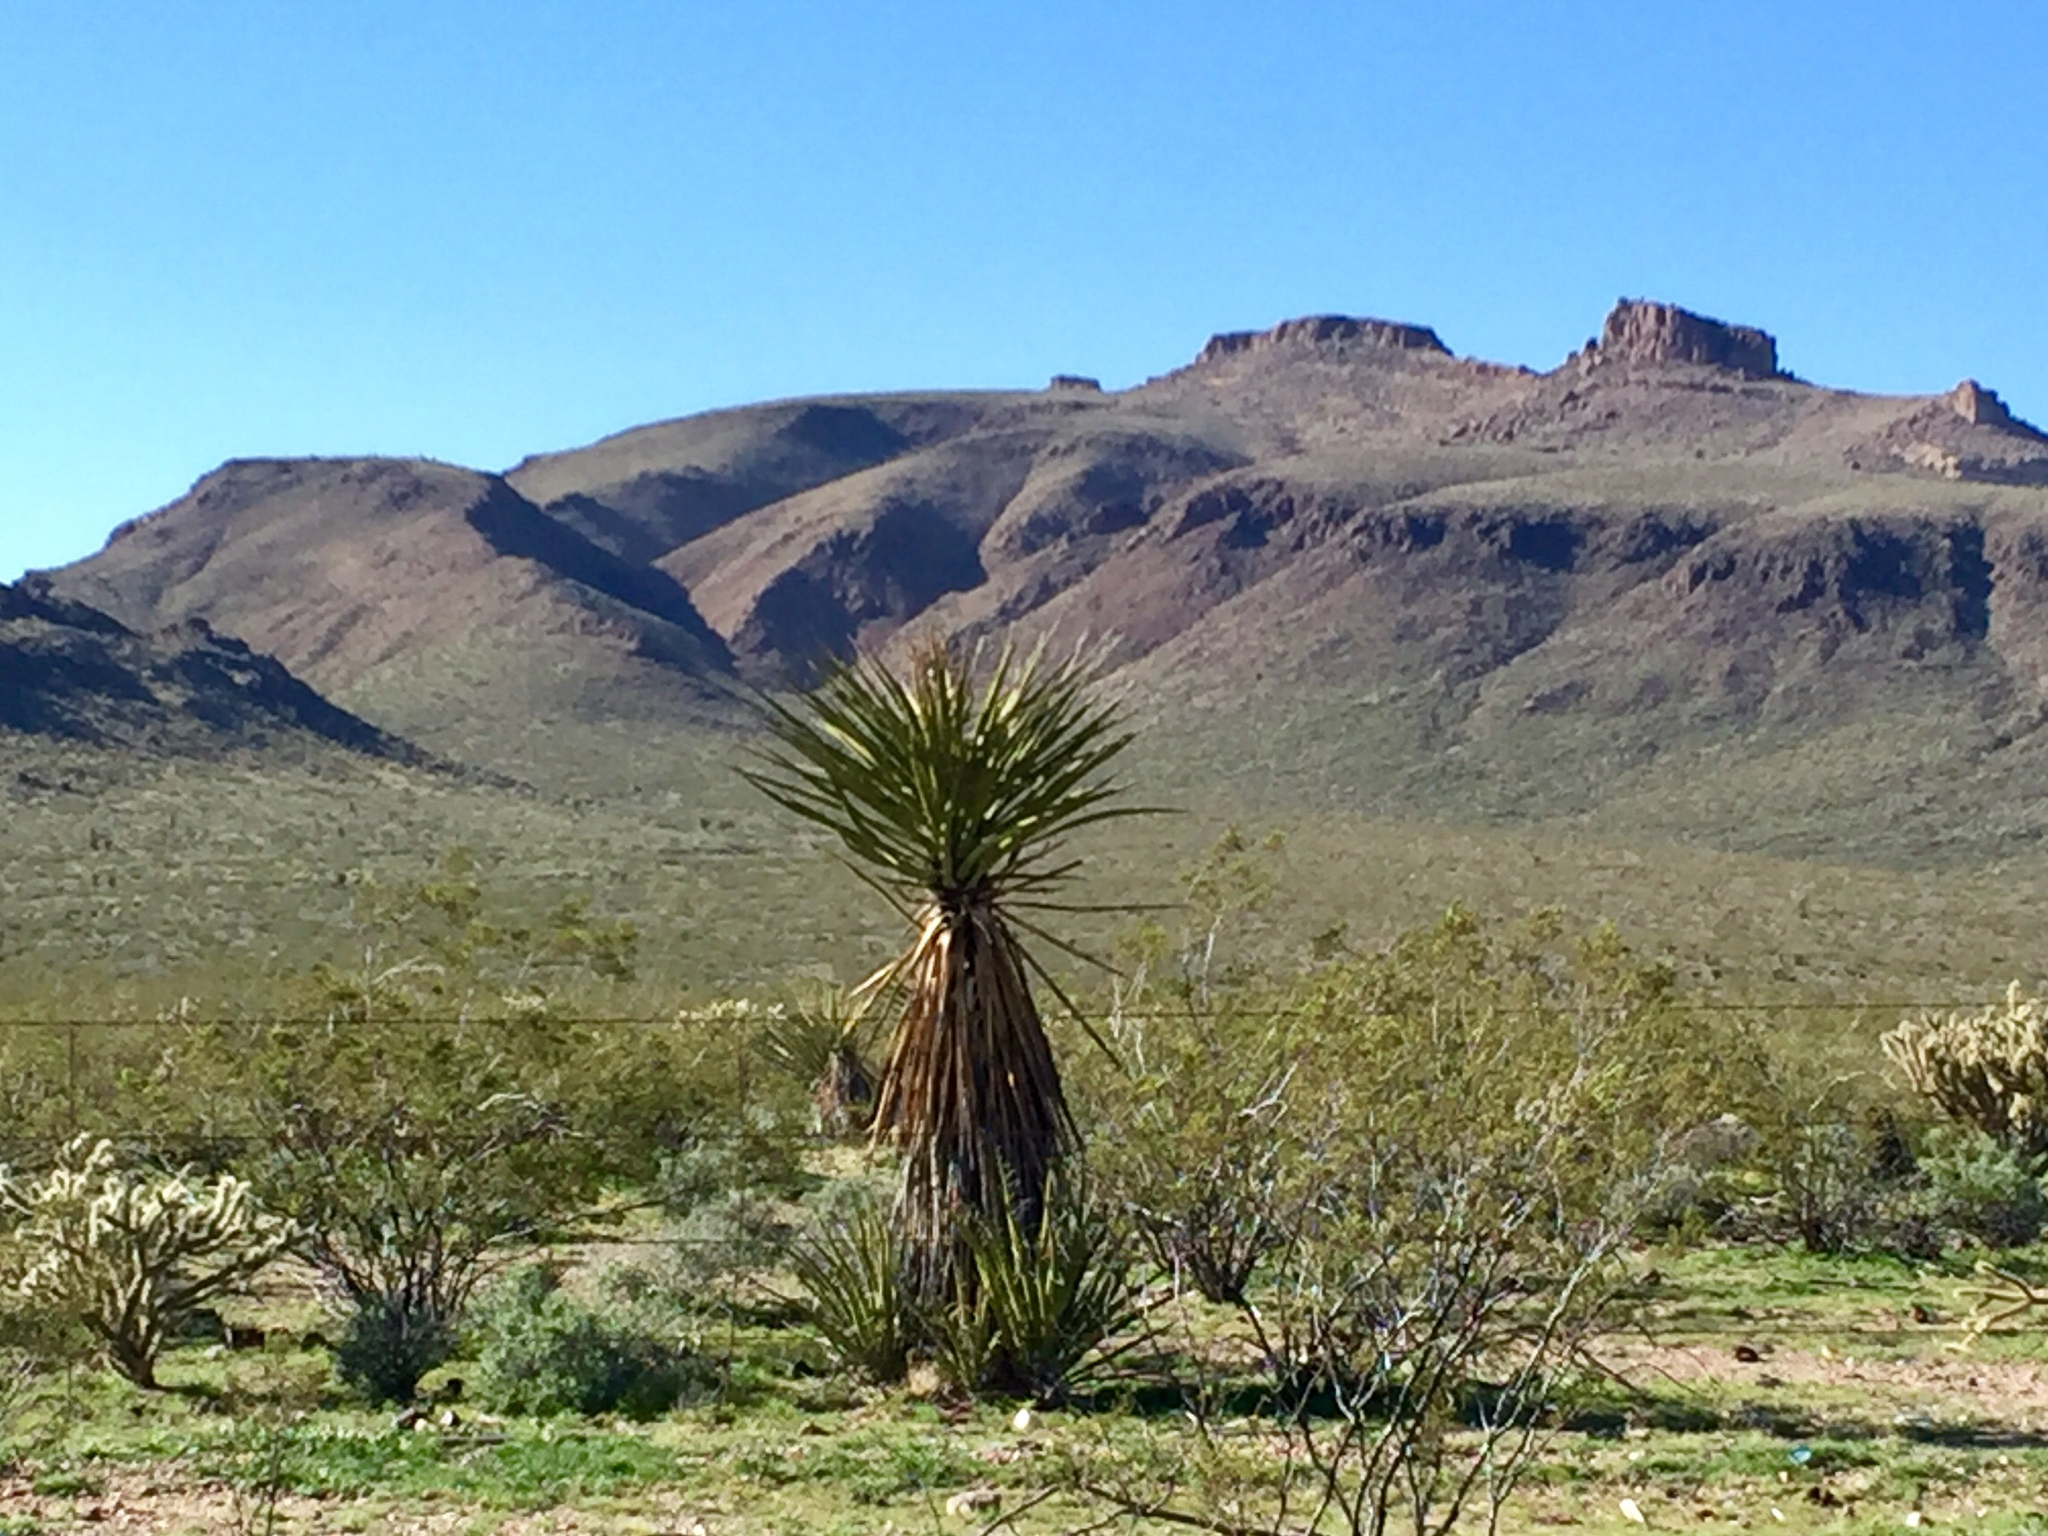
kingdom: Plantae
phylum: Tracheophyta
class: Liliopsida
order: Asparagales
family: Asparagaceae
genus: Yucca
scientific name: Yucca schidigera
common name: Mojave yucca
